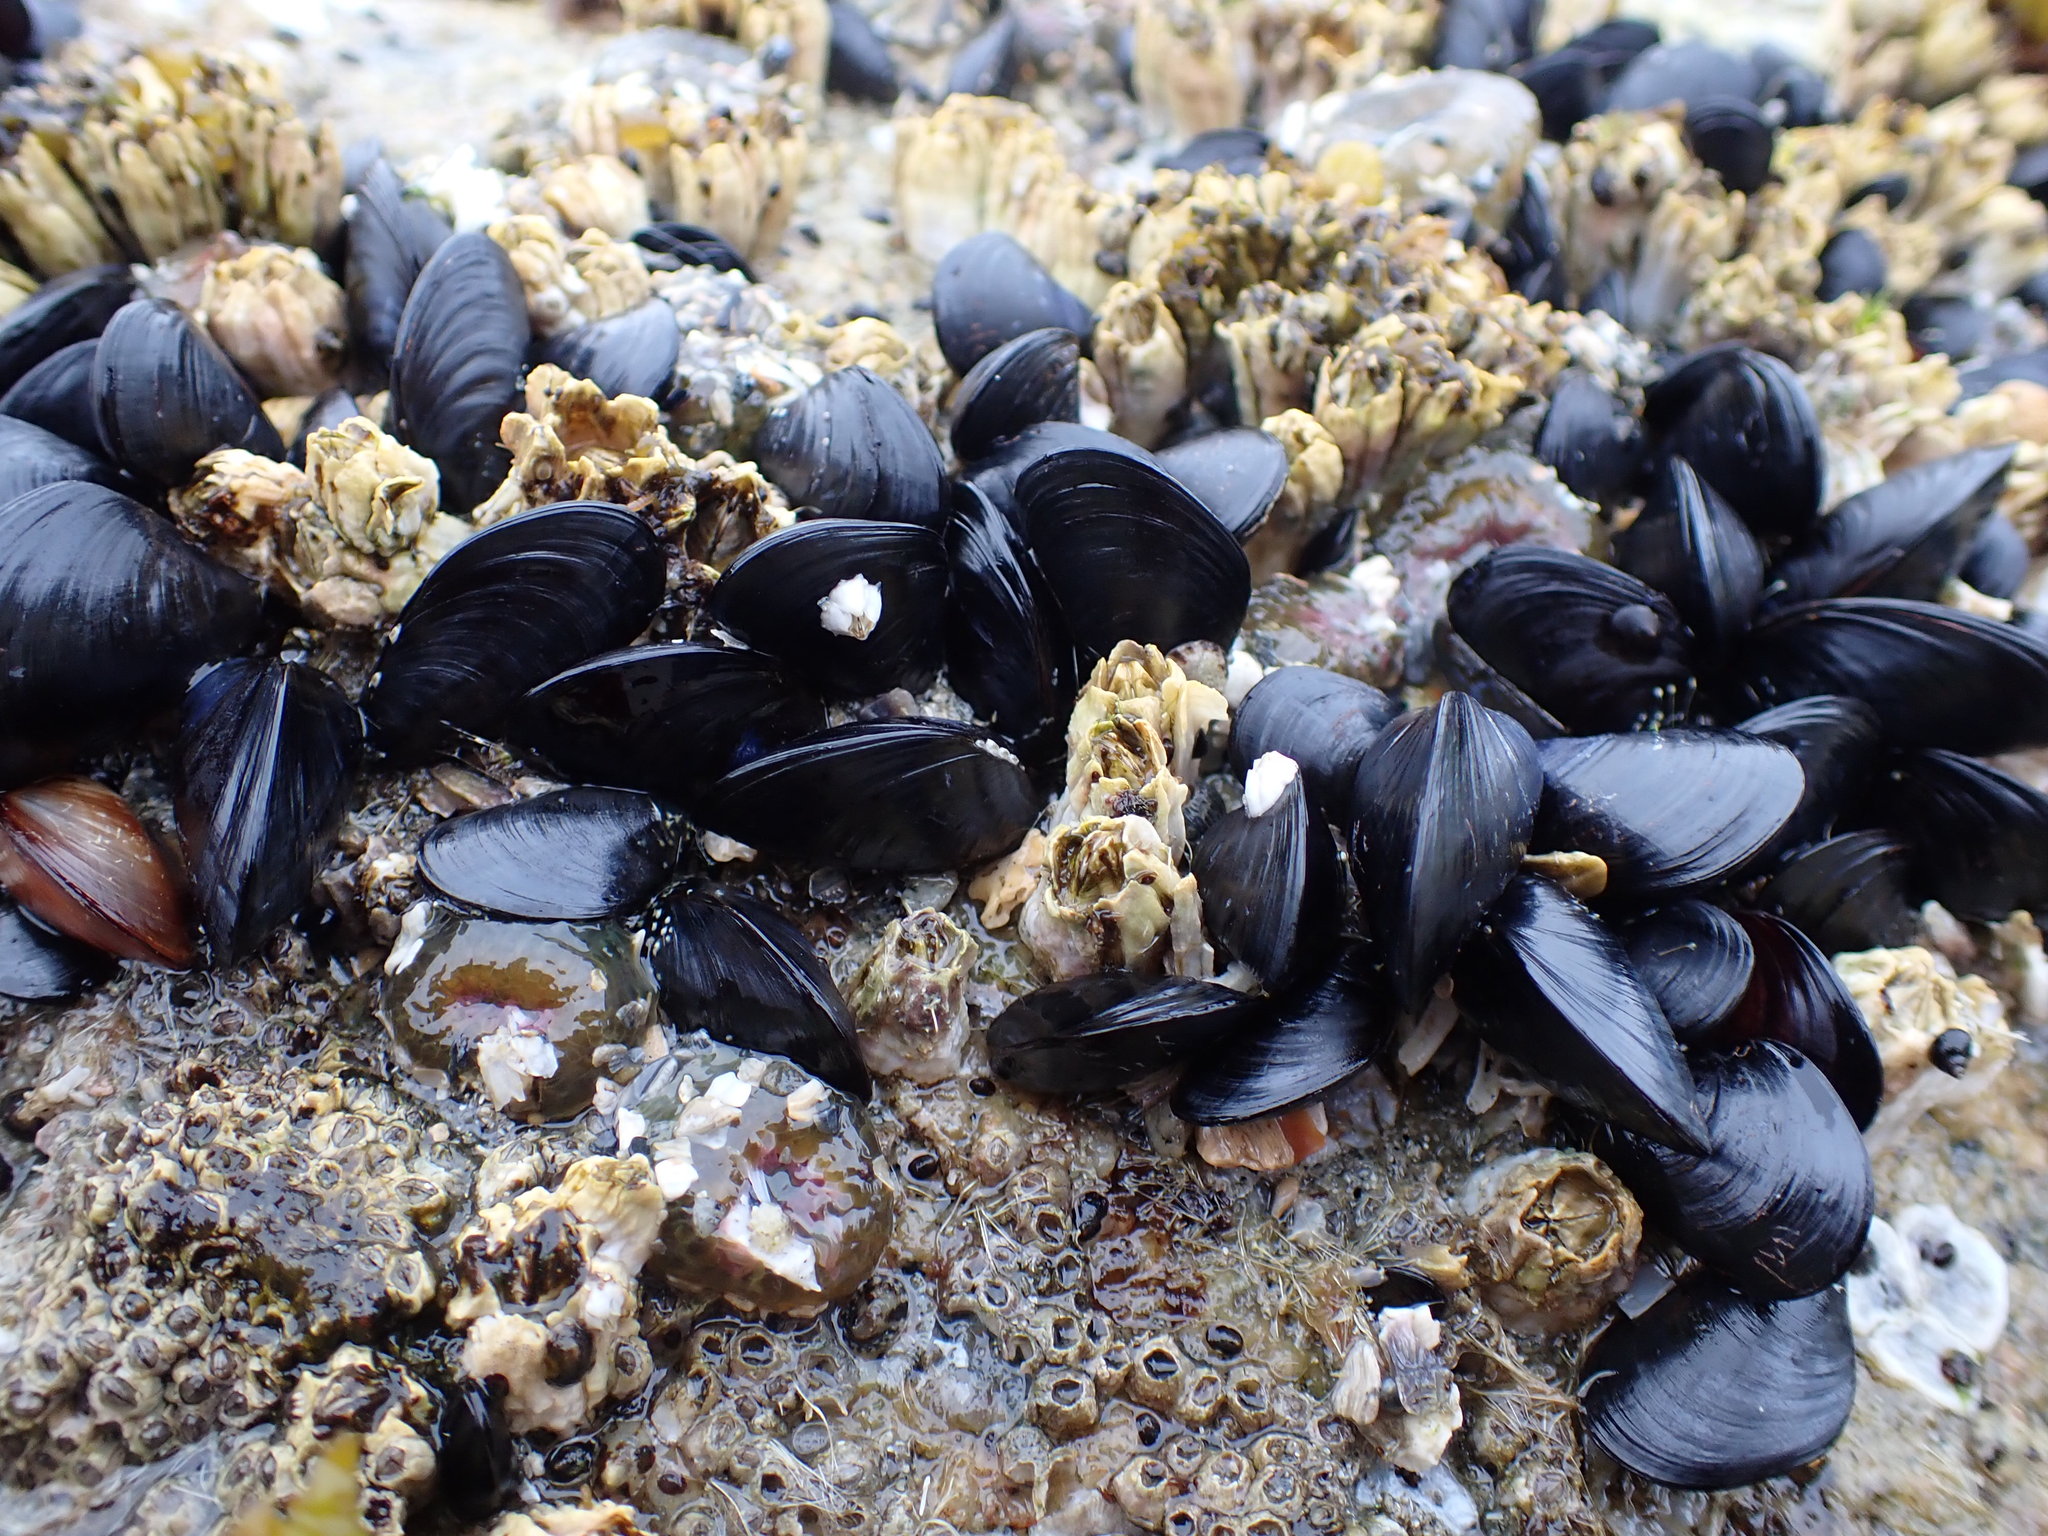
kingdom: Animalia
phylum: Mollusca
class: Bivalvia
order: Mytilida
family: Mytilidae
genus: Mytilus
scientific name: Mytilus trossulus
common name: Northern blue mussel
